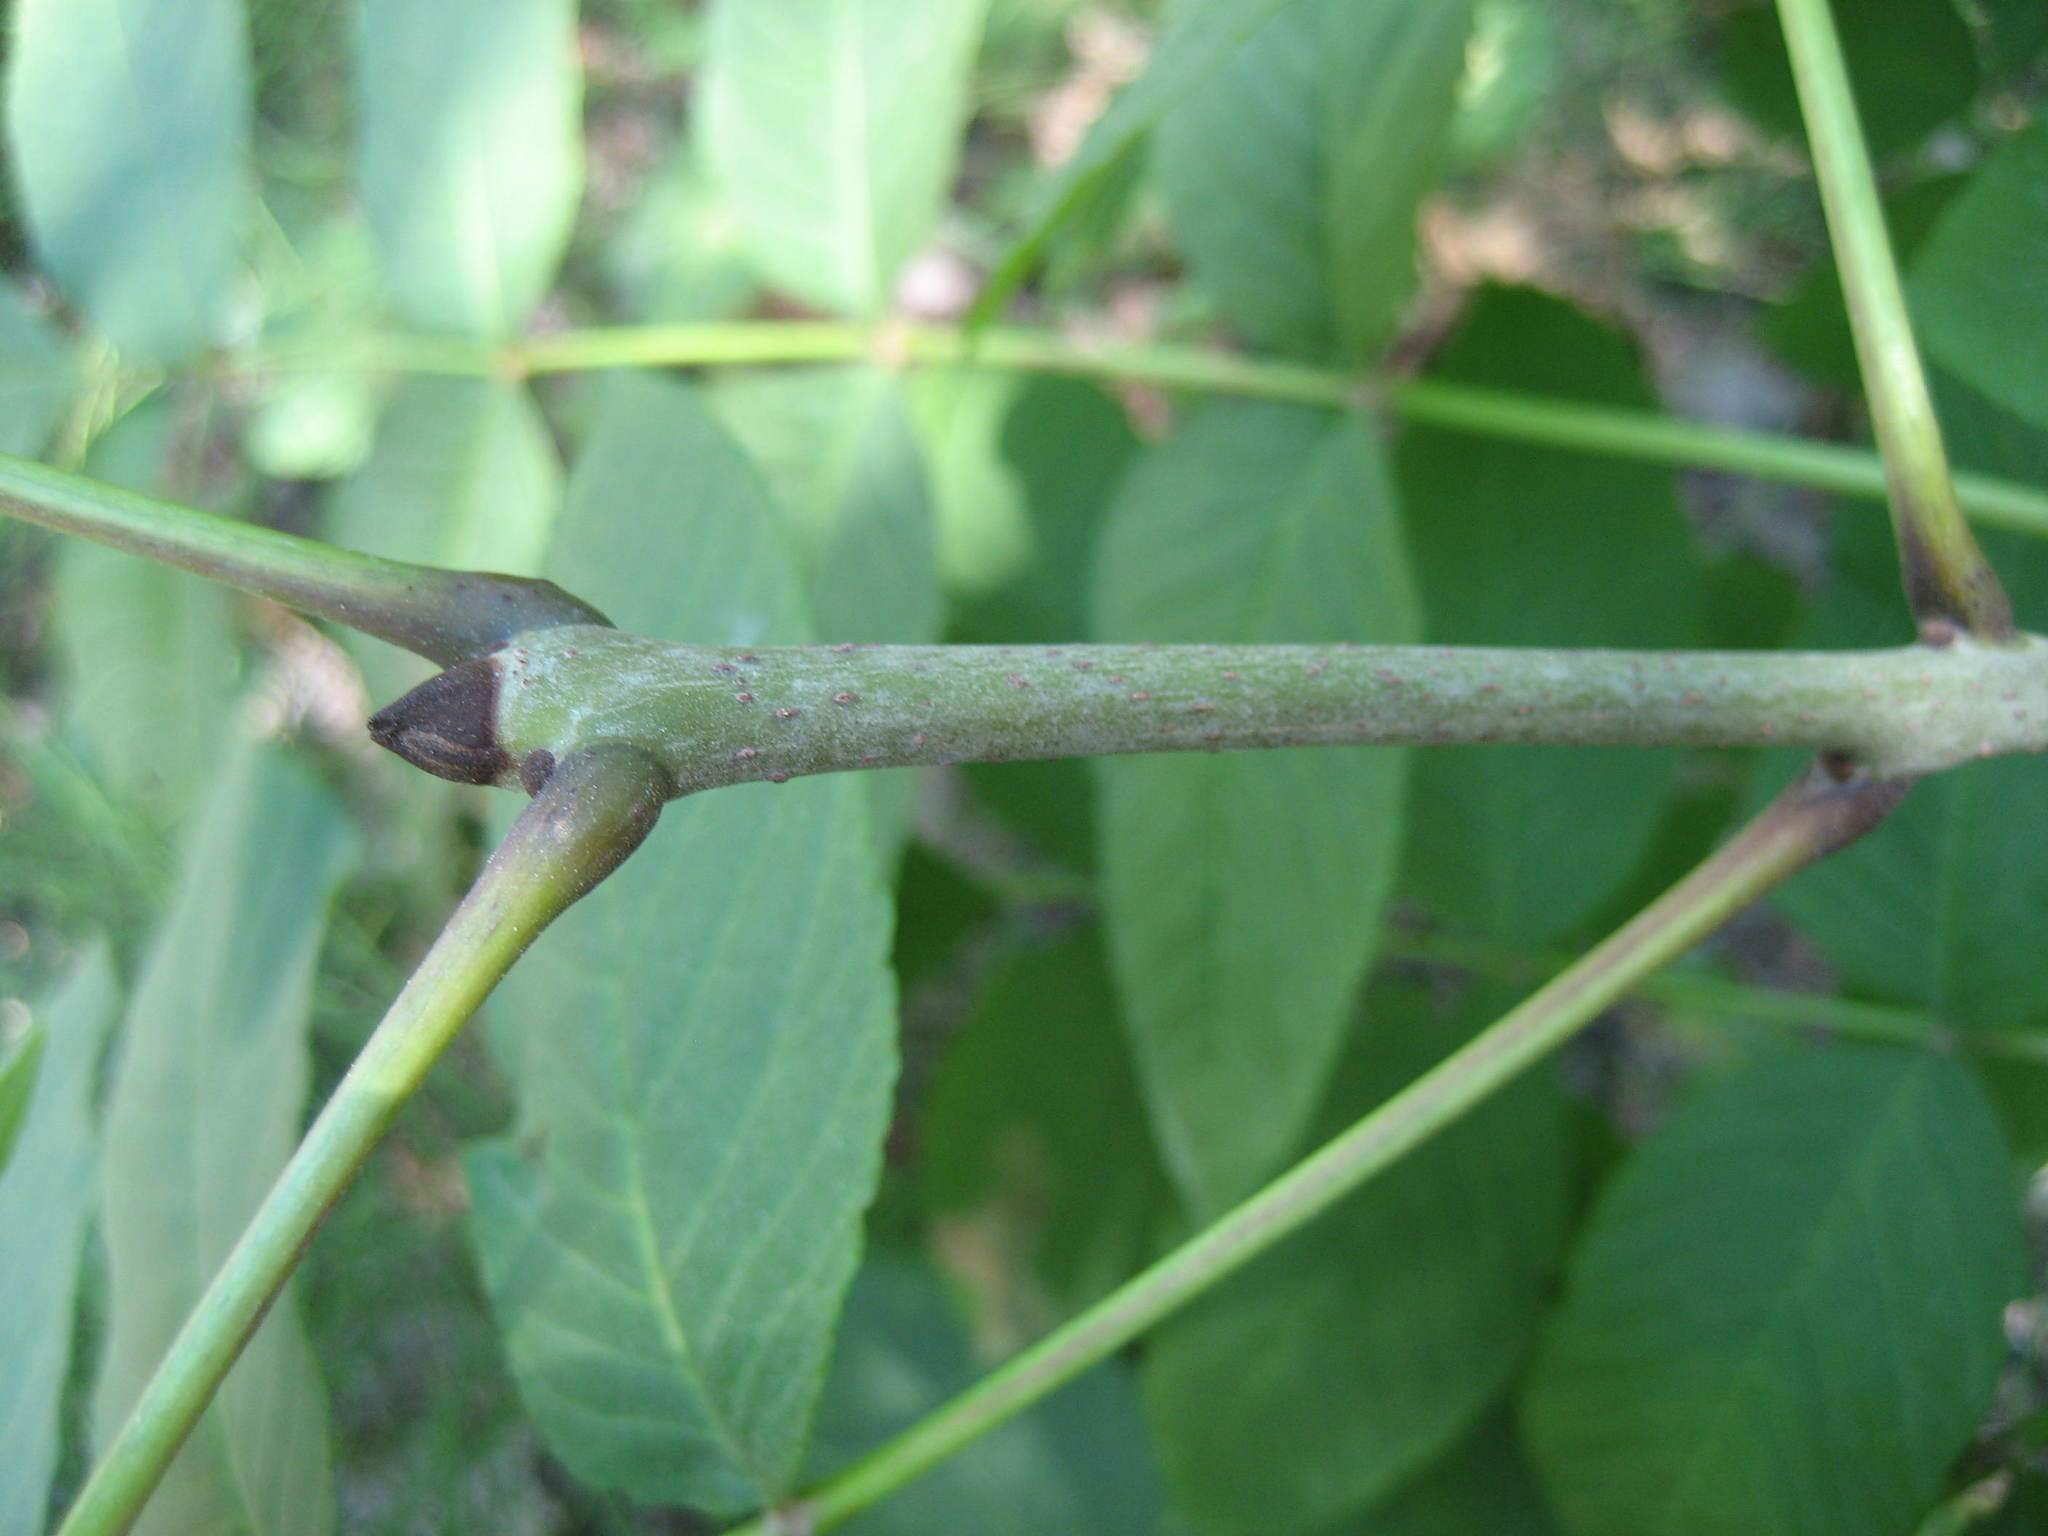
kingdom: Plantae
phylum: Tracheophyta
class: Magnoliopsida
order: Lamiales
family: Oleaceae
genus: Fraxinus
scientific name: Fraxinus nigra
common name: Black ash
